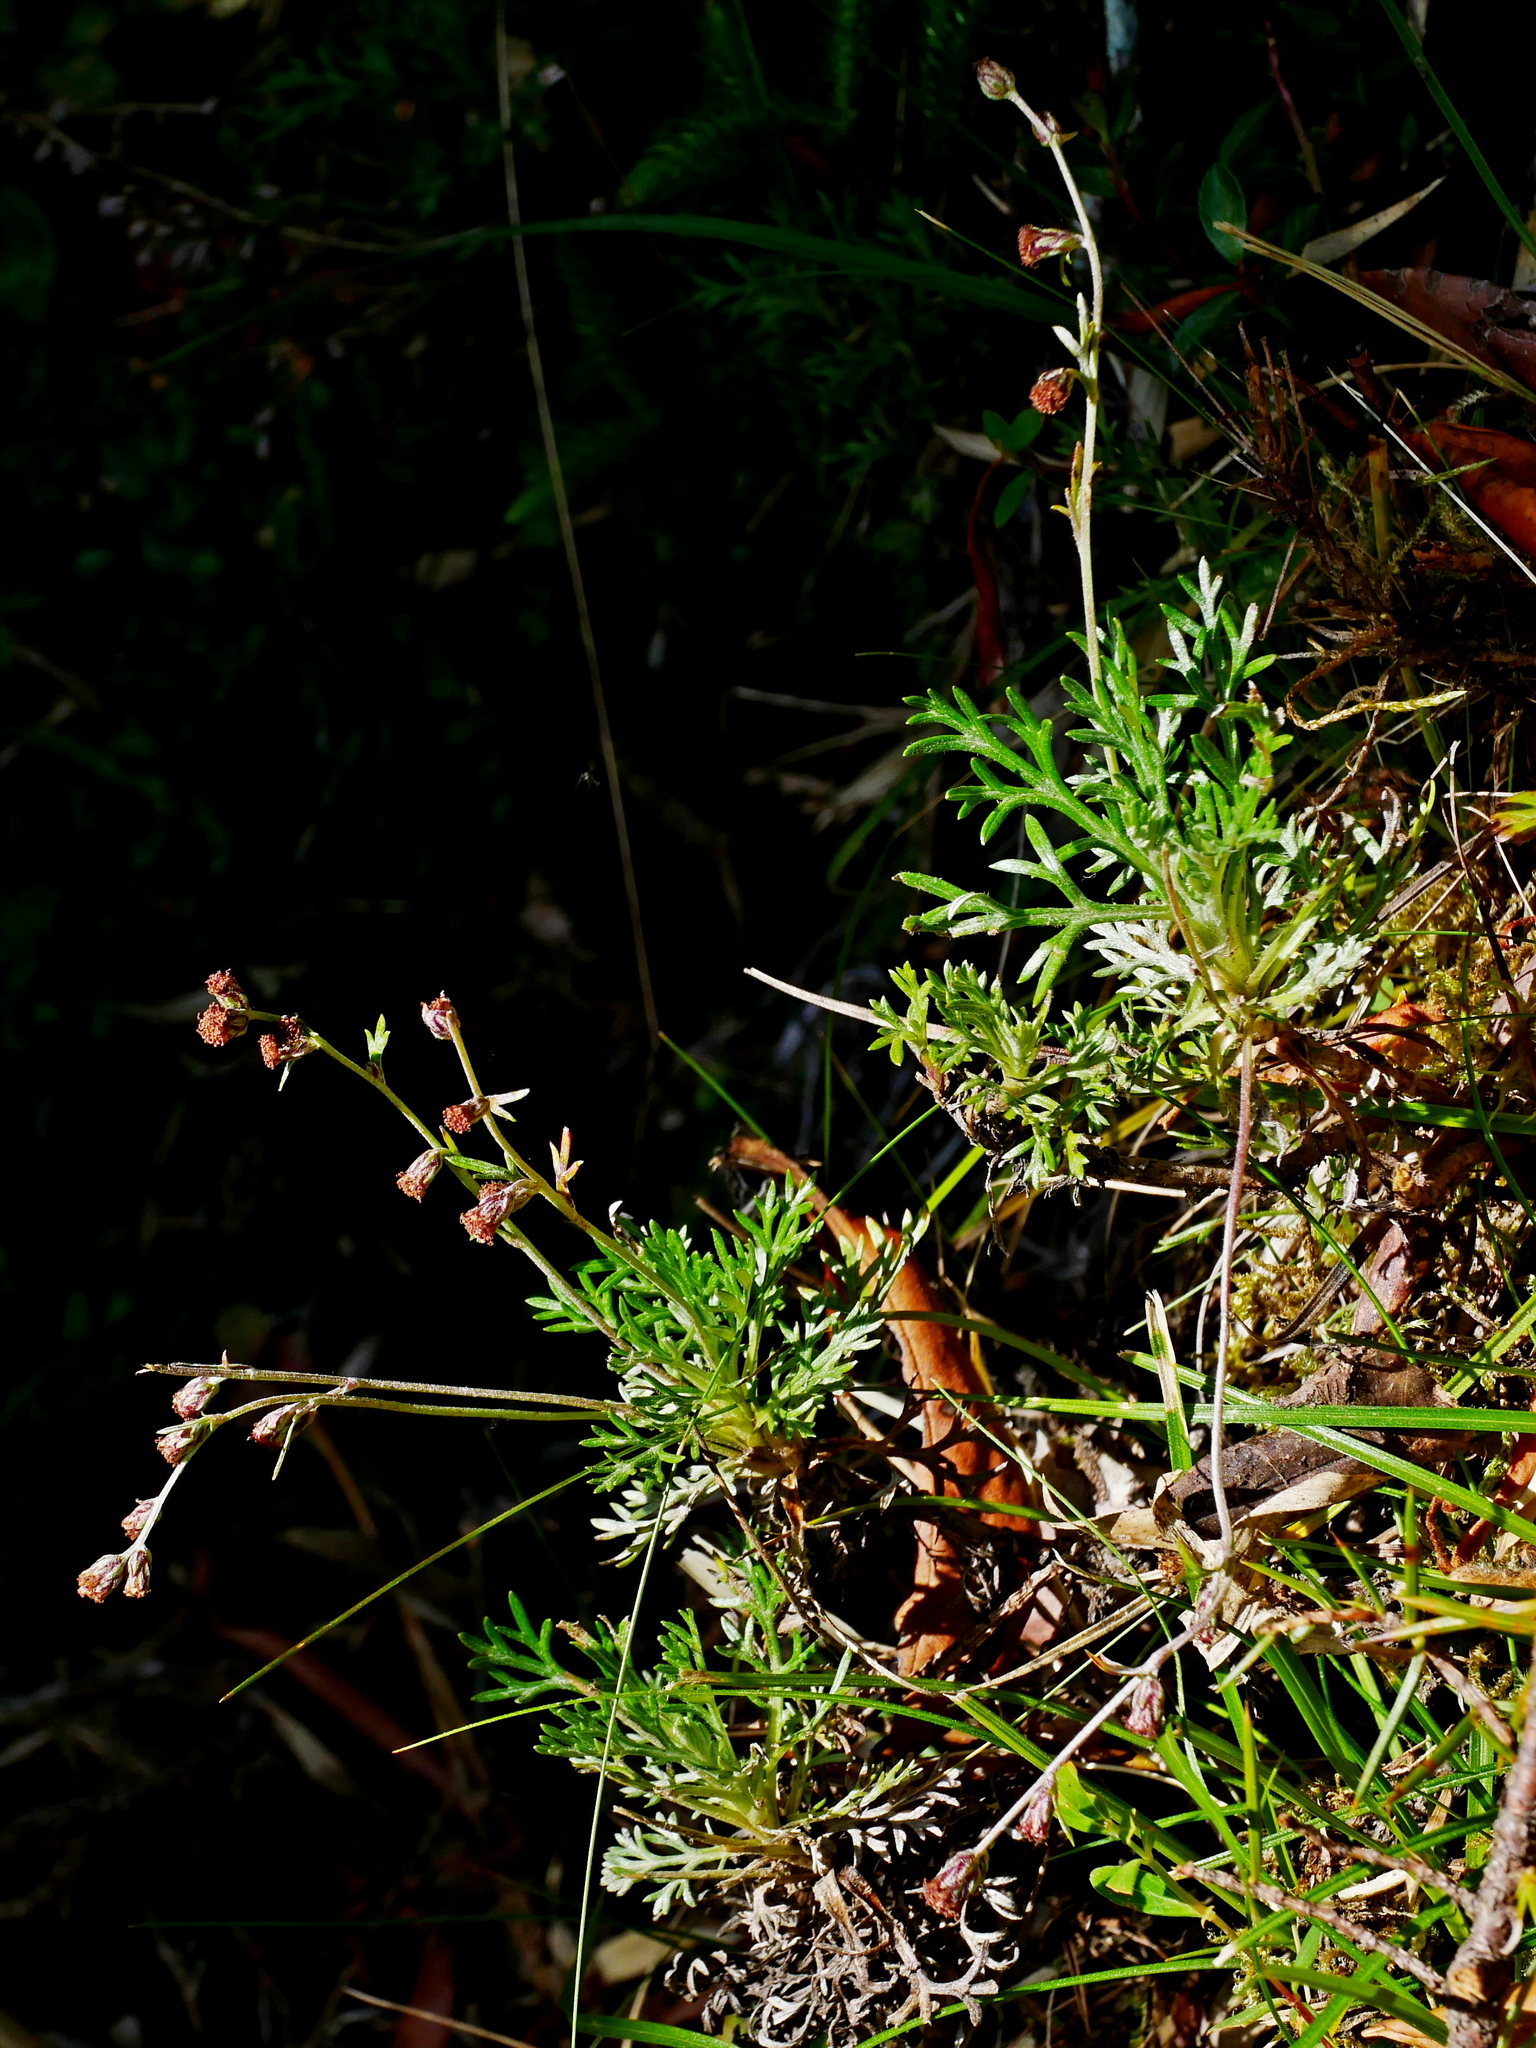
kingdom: Plantae
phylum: Tracheophyta
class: Magnoliopsida
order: Asterales
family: Asteraceae
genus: Artemisia
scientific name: Artemisia oligocarpa
